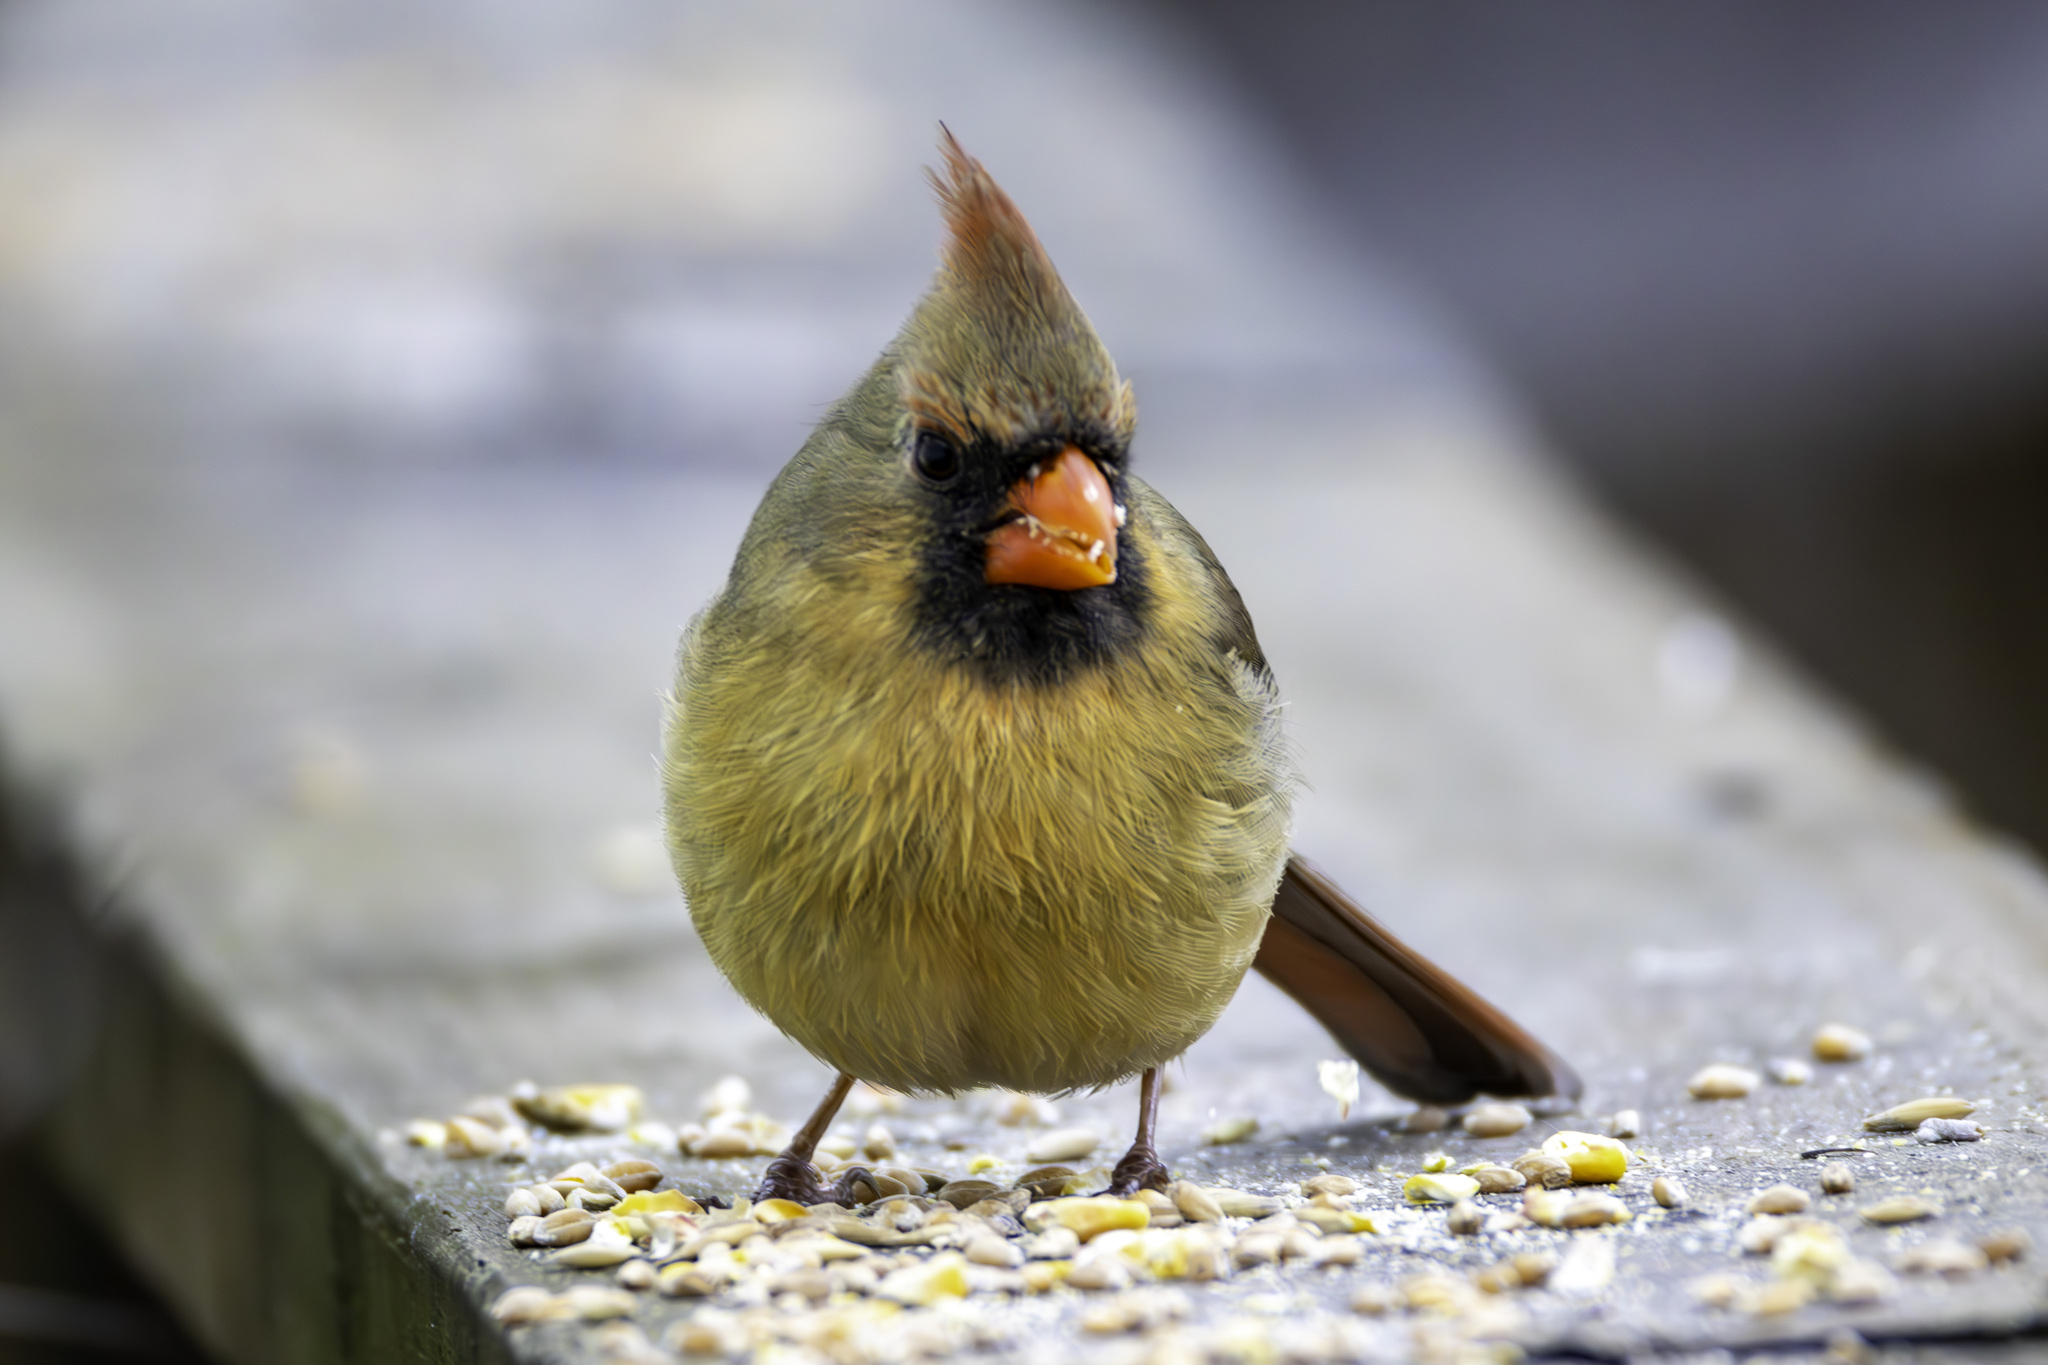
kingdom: Animalia
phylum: Chordata
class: Aves
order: Passeriformes
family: Cardinalidae
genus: Cardinalis
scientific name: Cardinalis cardinalis
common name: Northern cardinal
